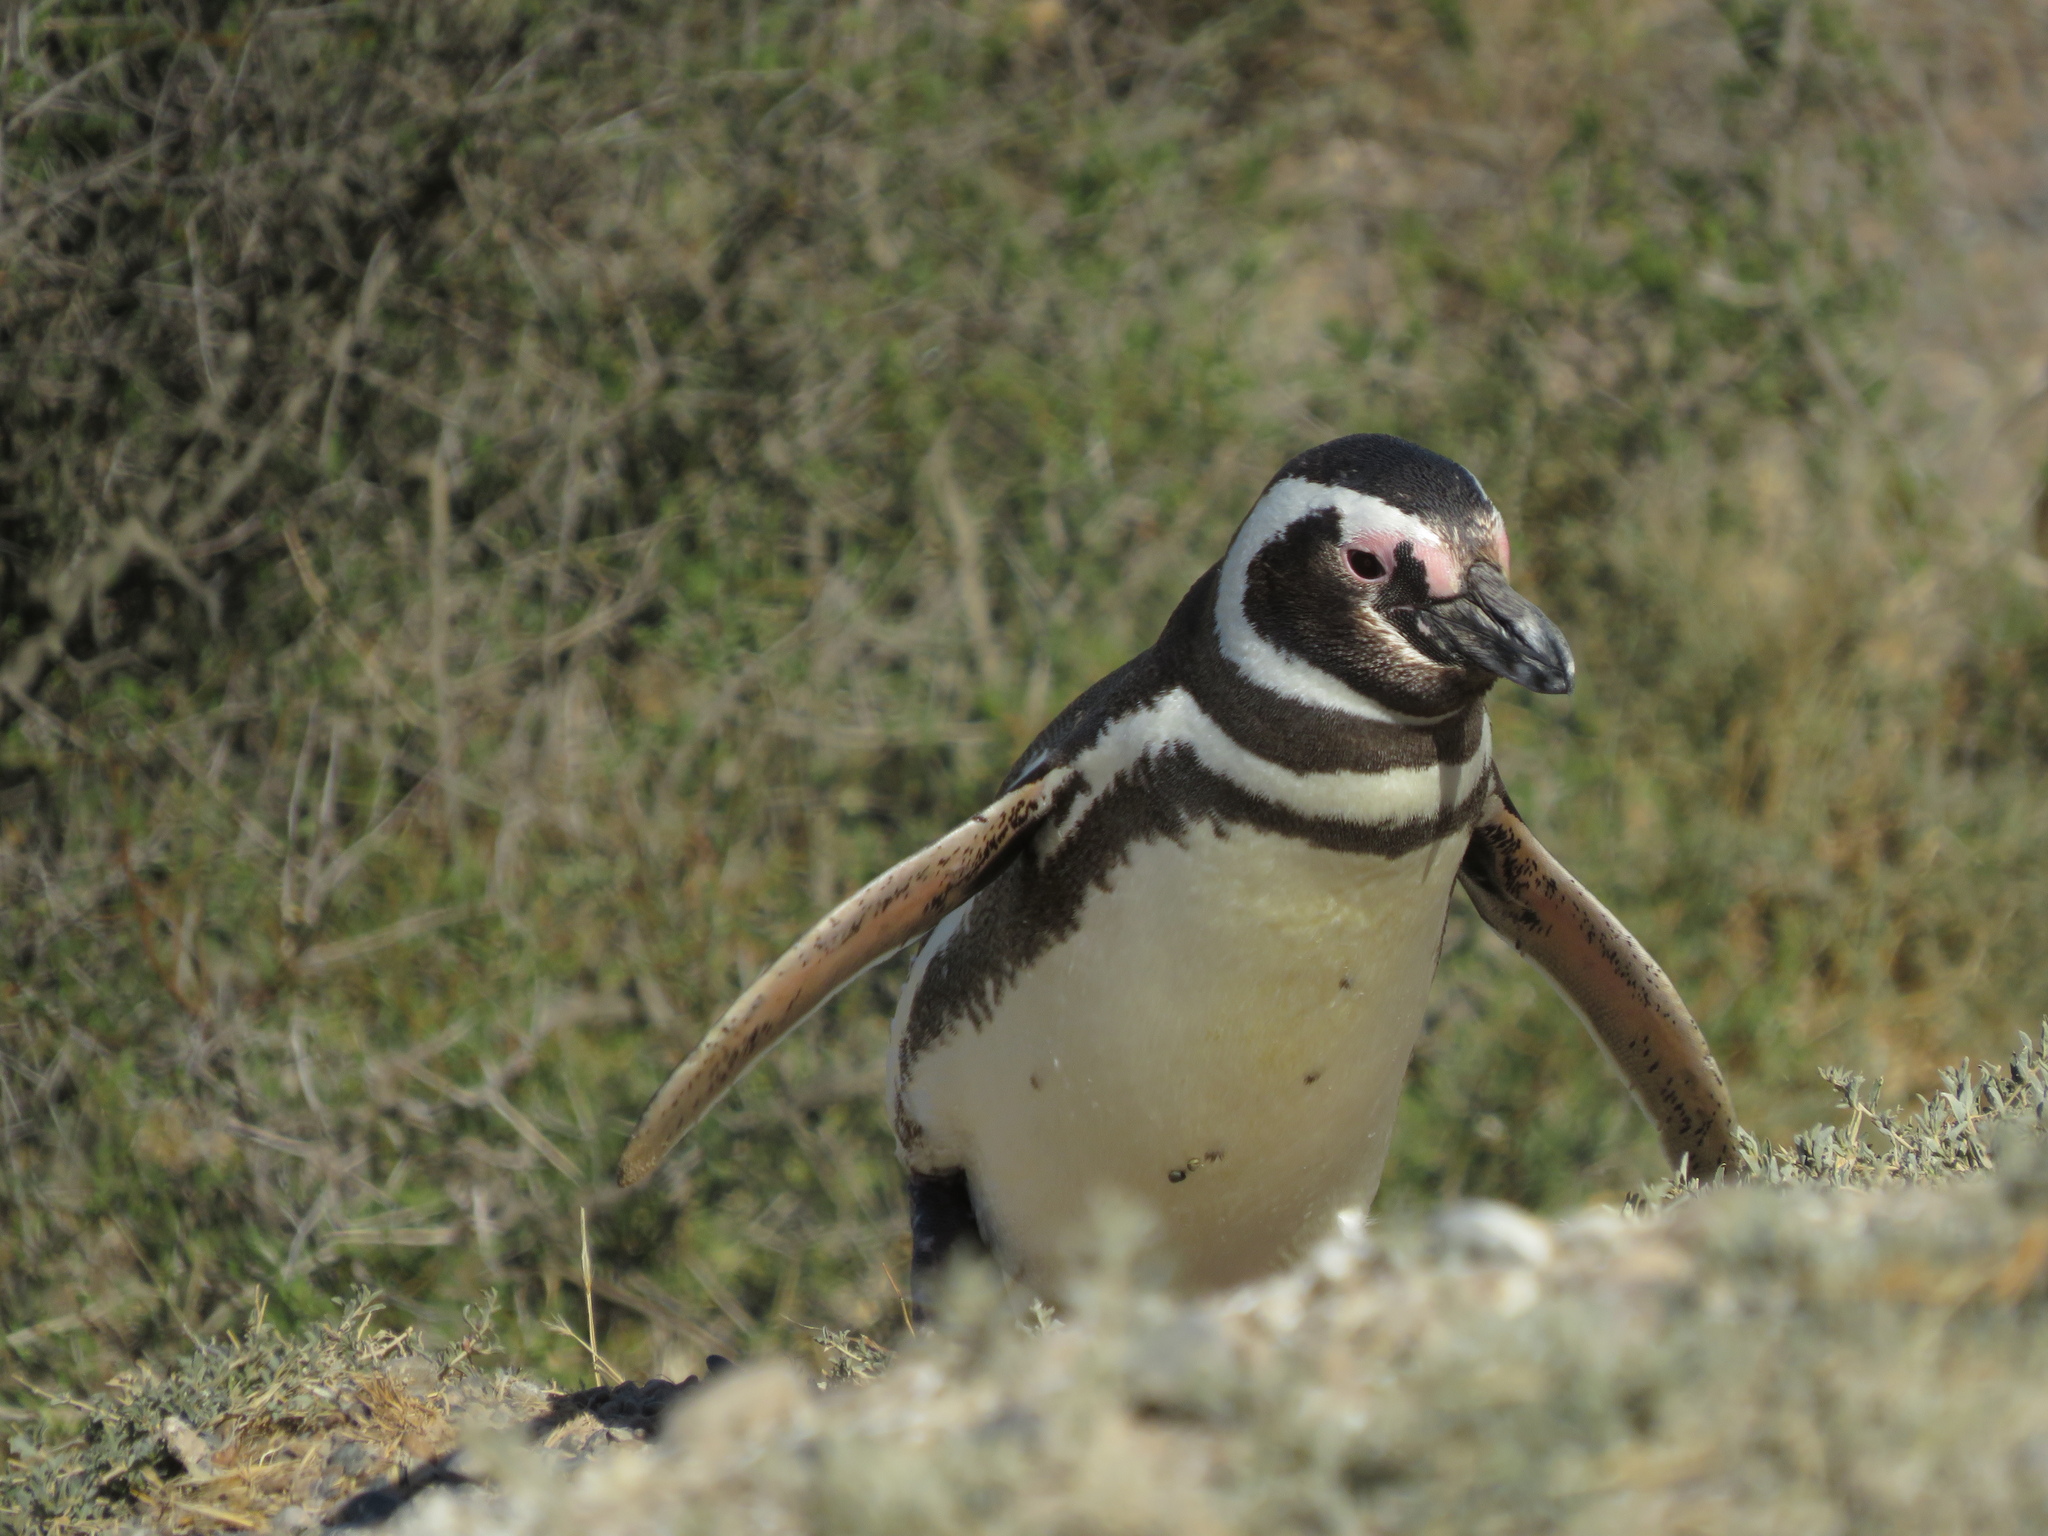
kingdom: Animalia
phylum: Chordata
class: Aves
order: Sphenisciformes
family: Spheniscidae
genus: Spheniscus
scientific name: Spheniscus magellanicus
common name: Magellanic penguin
